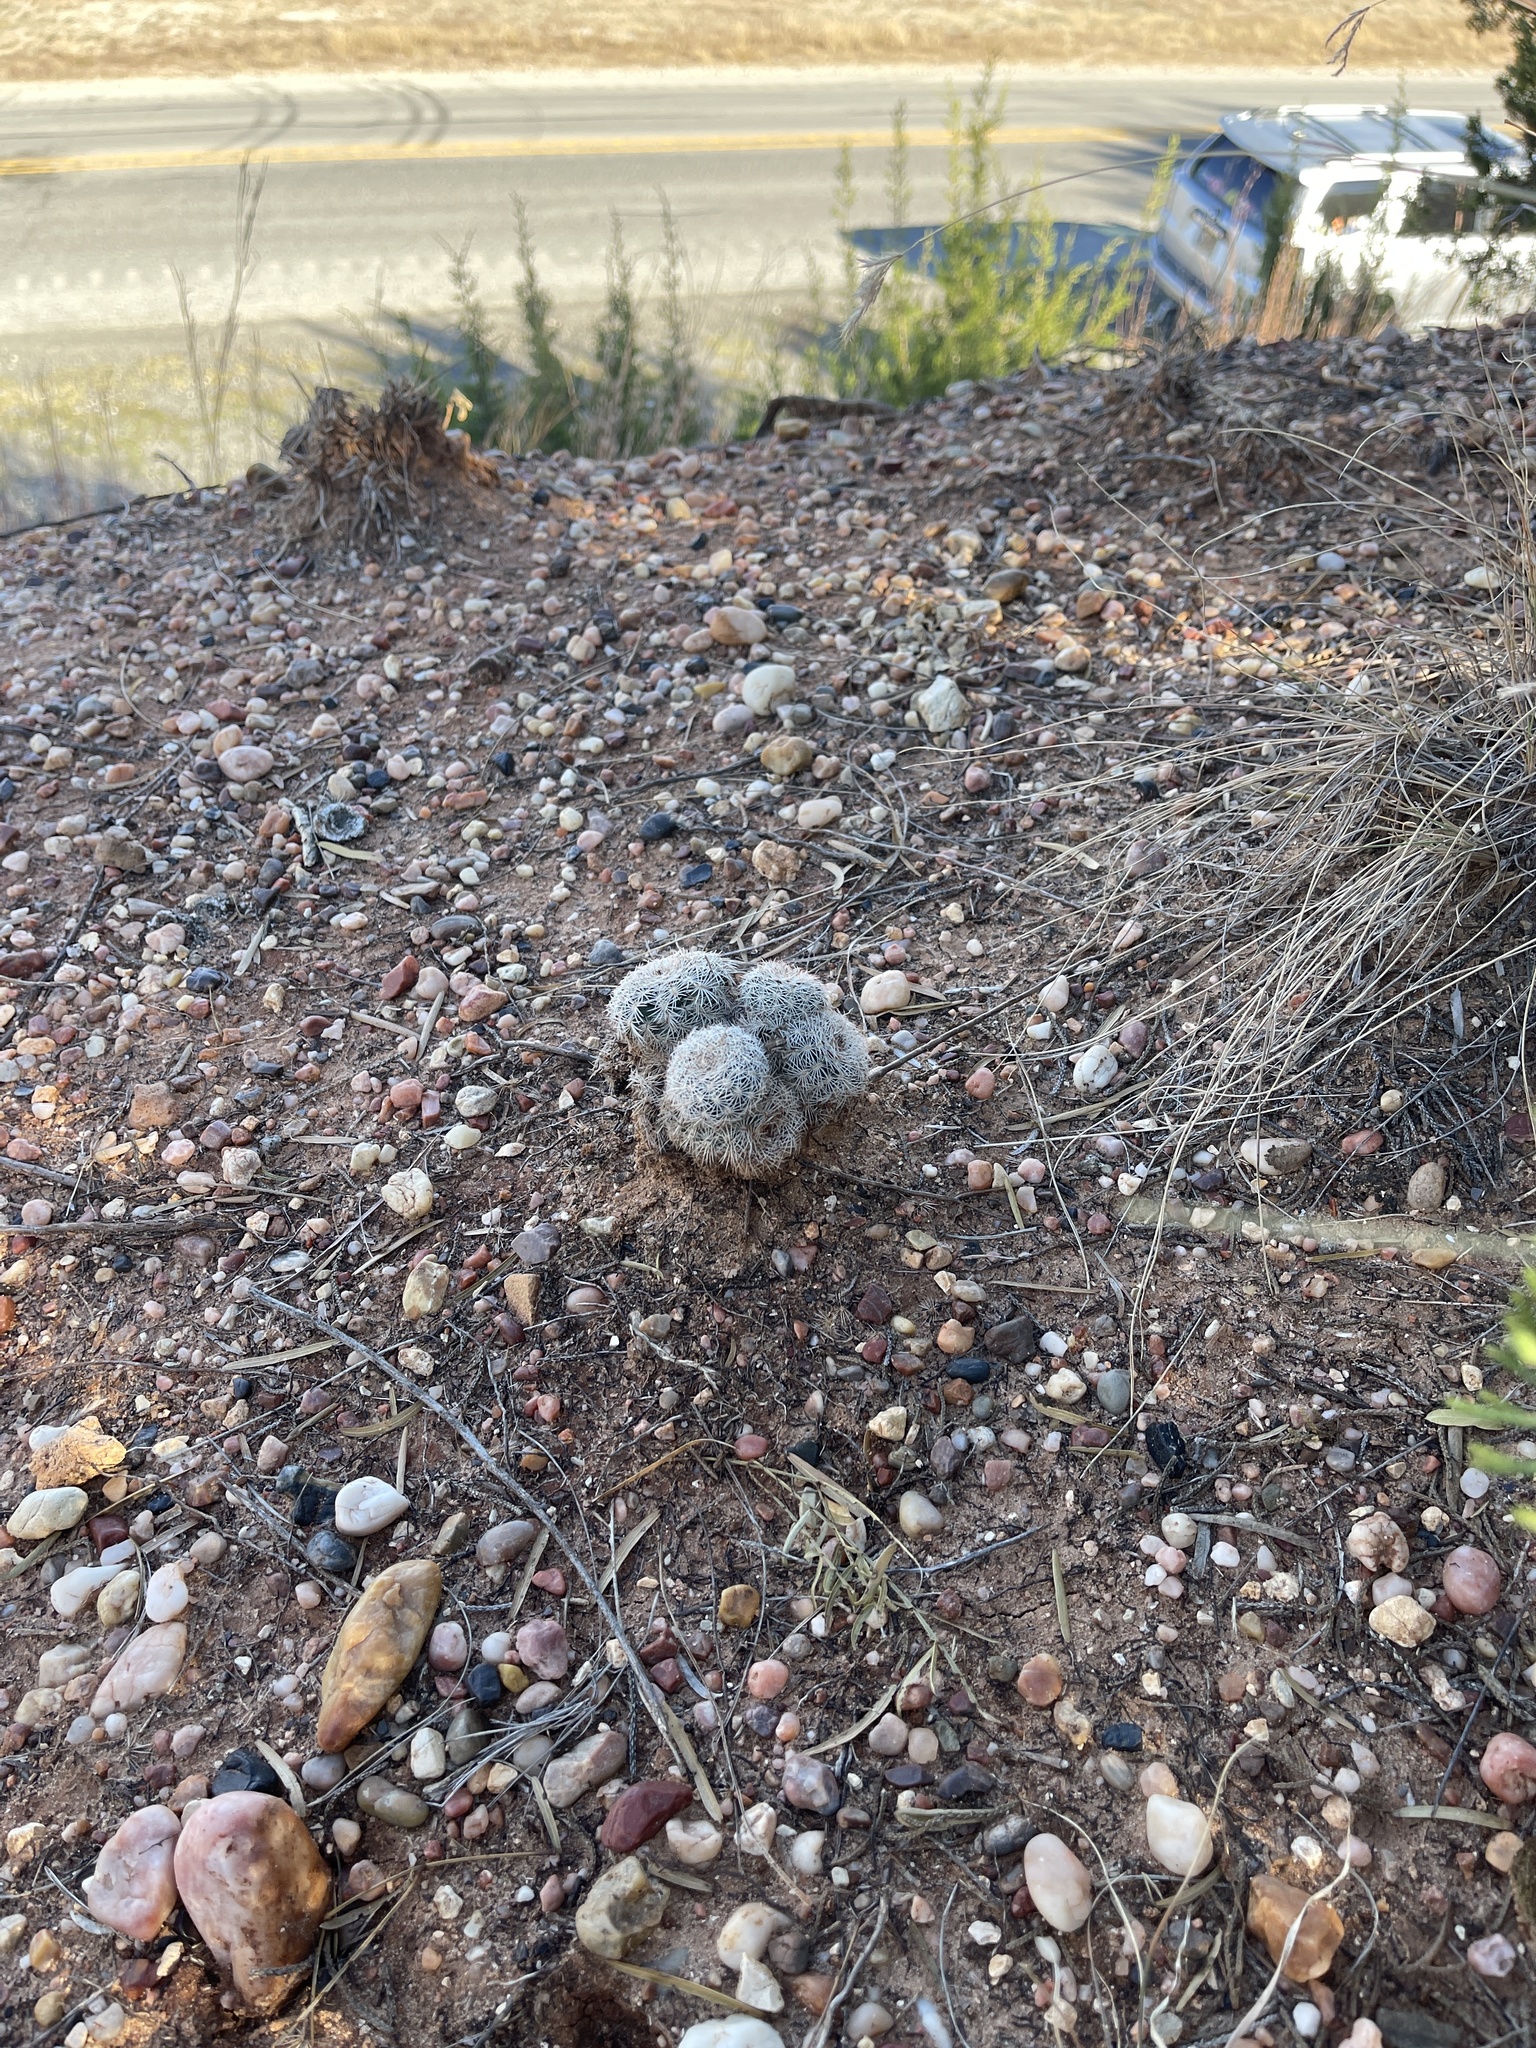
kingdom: Plantae
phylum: Tracheophyta
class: Magnoliopsida
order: Caryophyllales
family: Cactaceae
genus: Echinocereus
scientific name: Echinocereus reichenbachii
